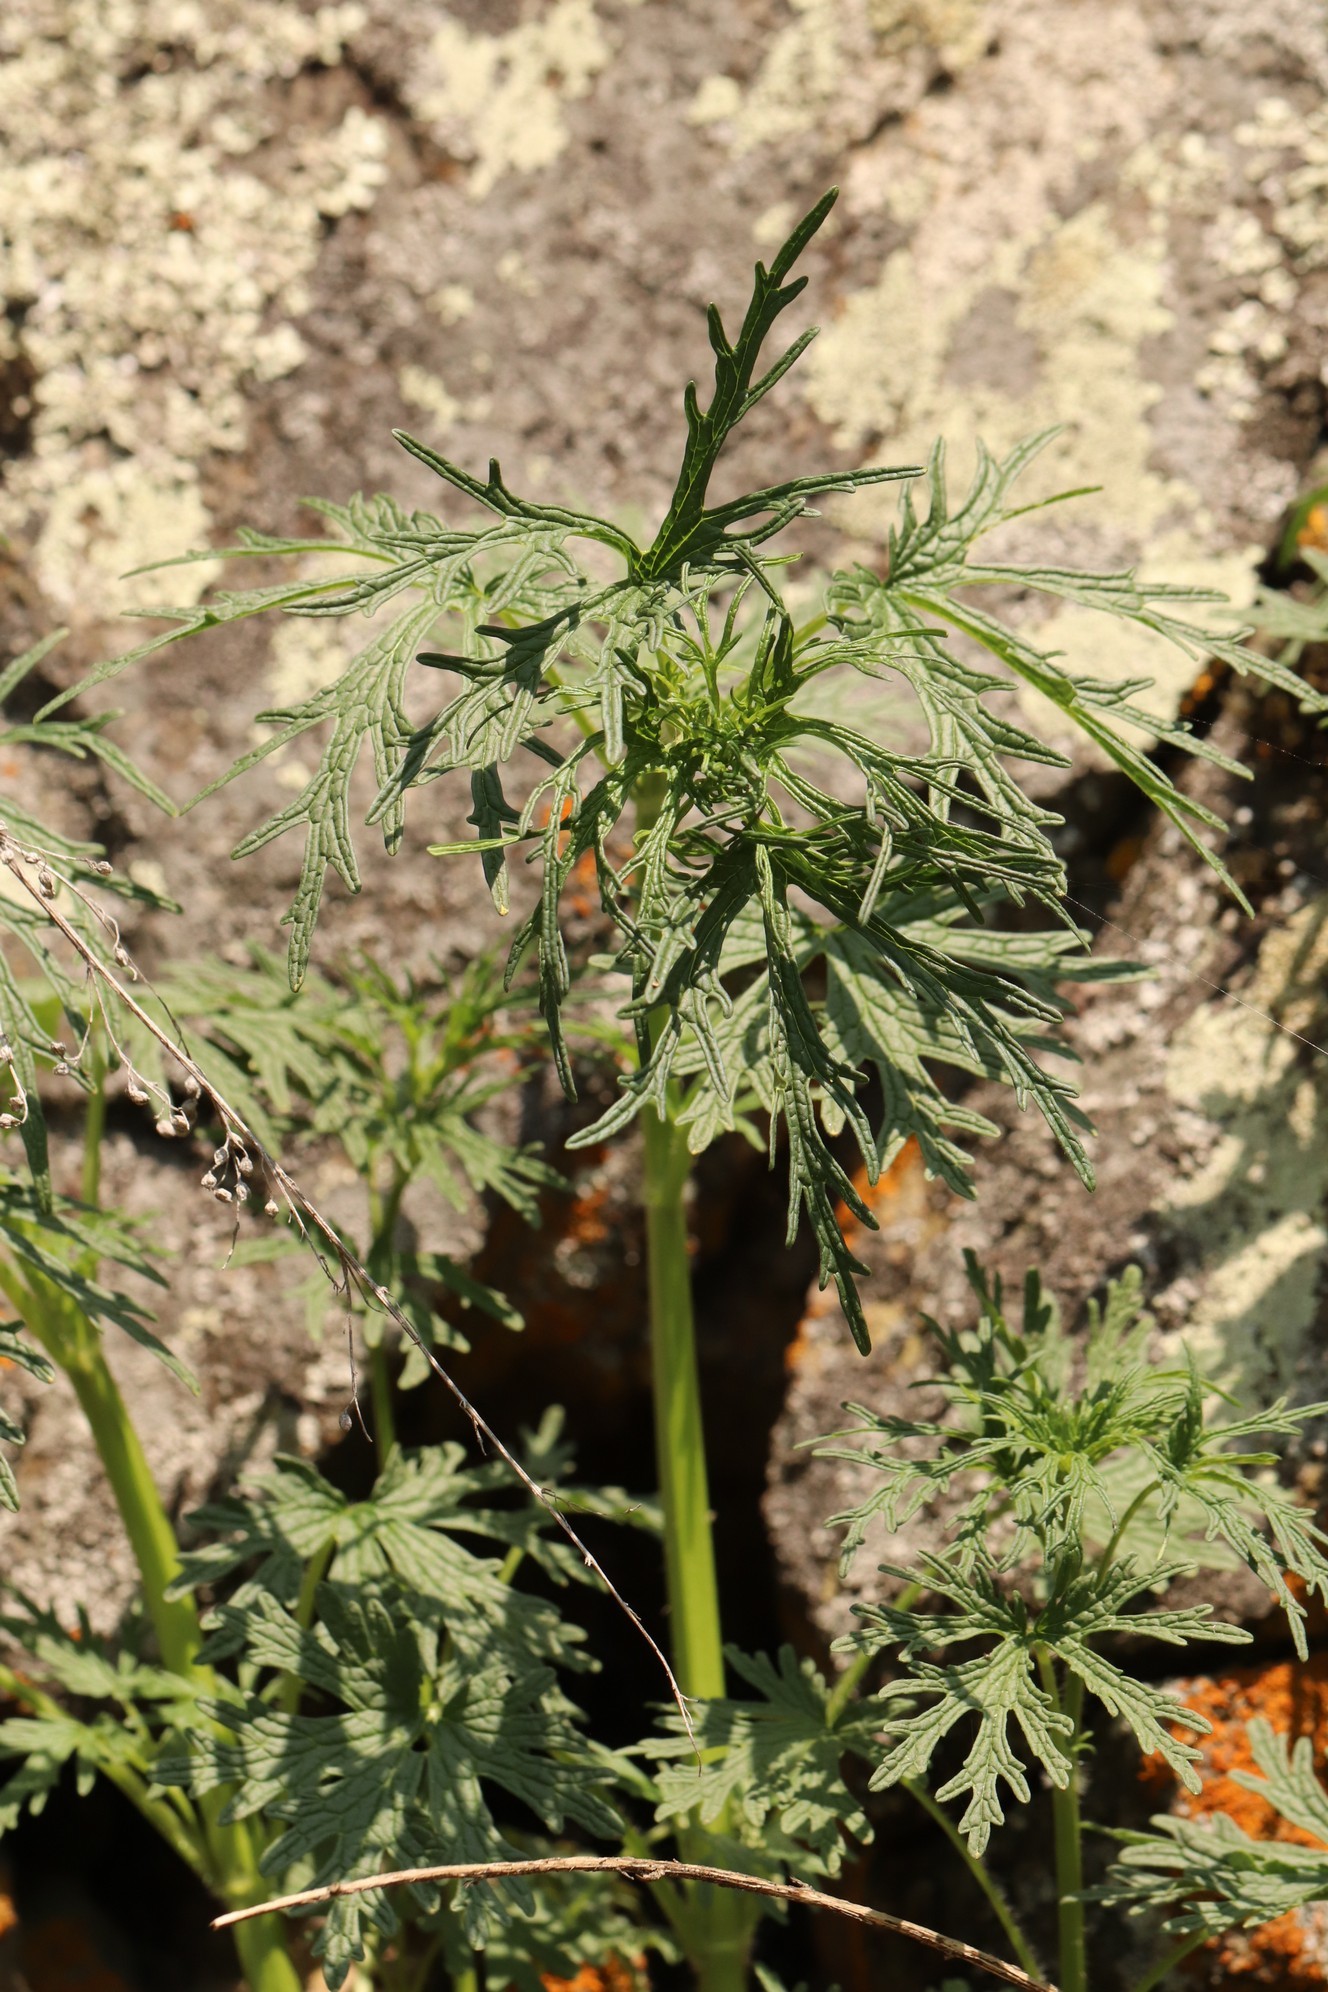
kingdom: Plantae
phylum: Tracheophyta
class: Magnoliopsida
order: Lamiales
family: Lamiaceae
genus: Leonurus
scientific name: Leonurus tataricus
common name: Chinese motherwort
